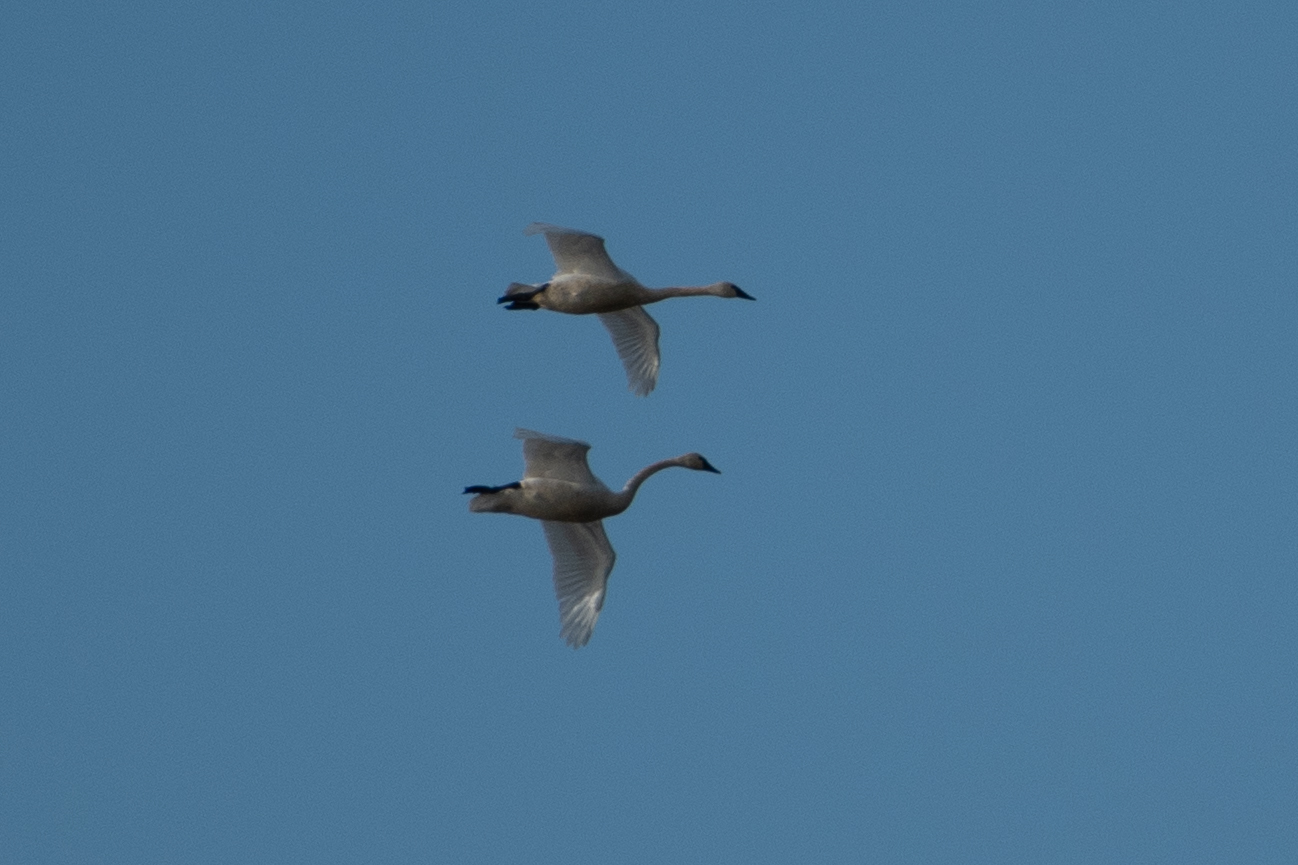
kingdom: Animalia
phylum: Chordata
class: Aves
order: Anseriformes
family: Anatidae
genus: Cygnus
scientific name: Cygnus columbianus
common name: Tundra swan
